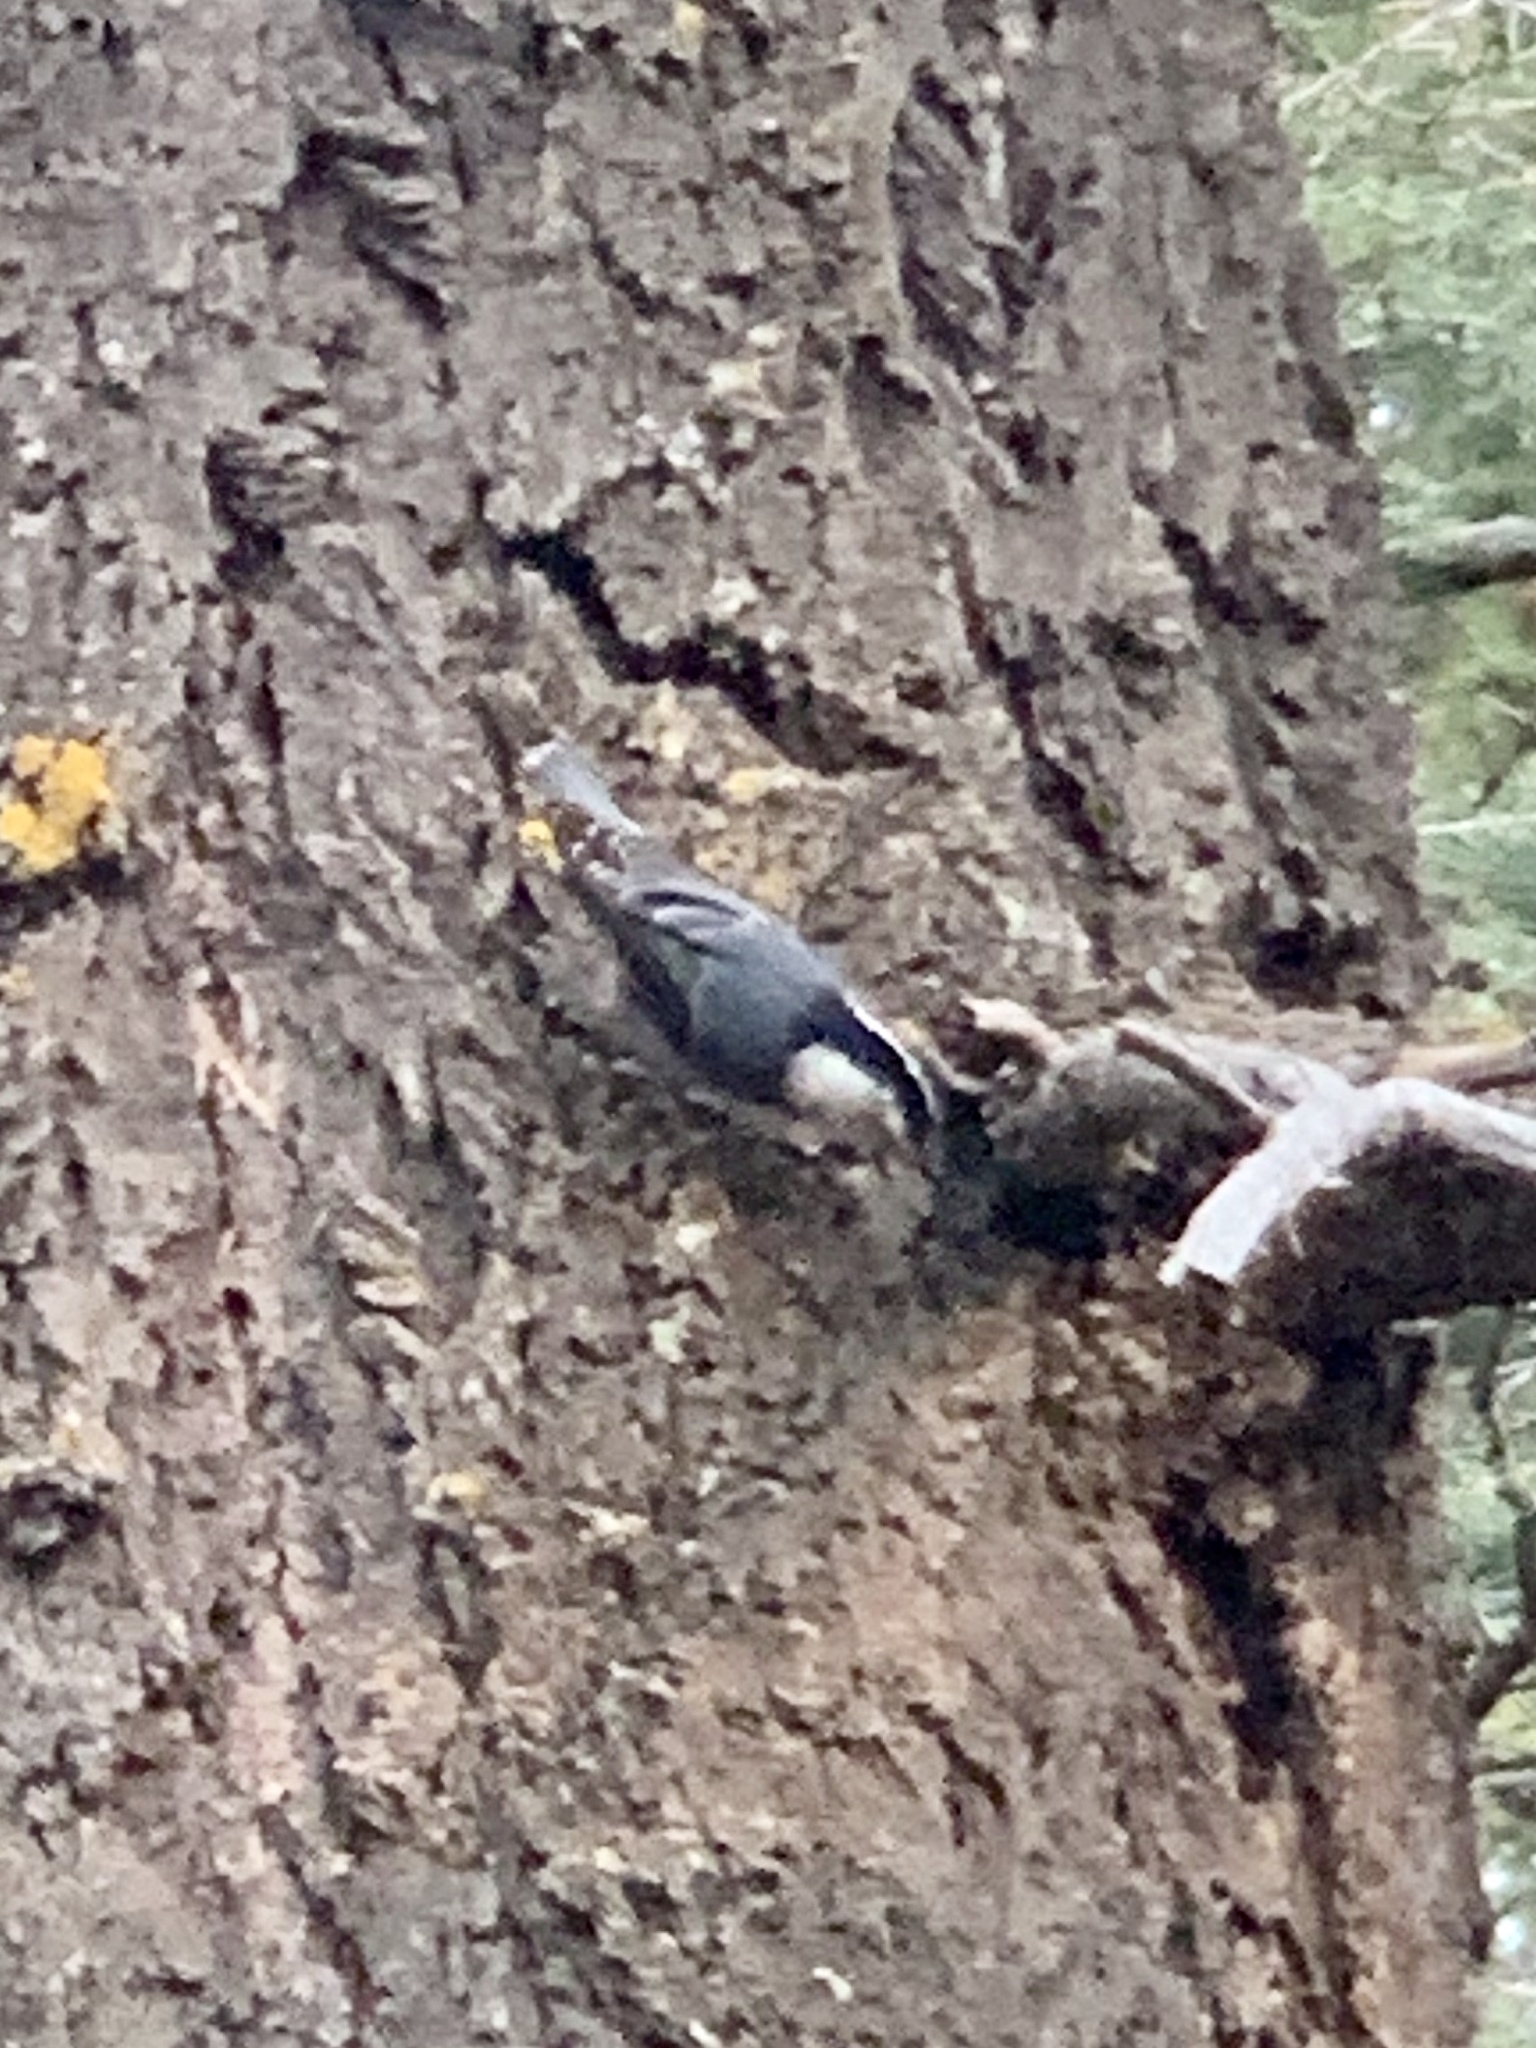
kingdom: Animalia
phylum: Chordata
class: Aves
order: Passeriformes
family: Sittidae
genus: Sitta
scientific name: Sitta carolinensis
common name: White-breasted nuthatch
